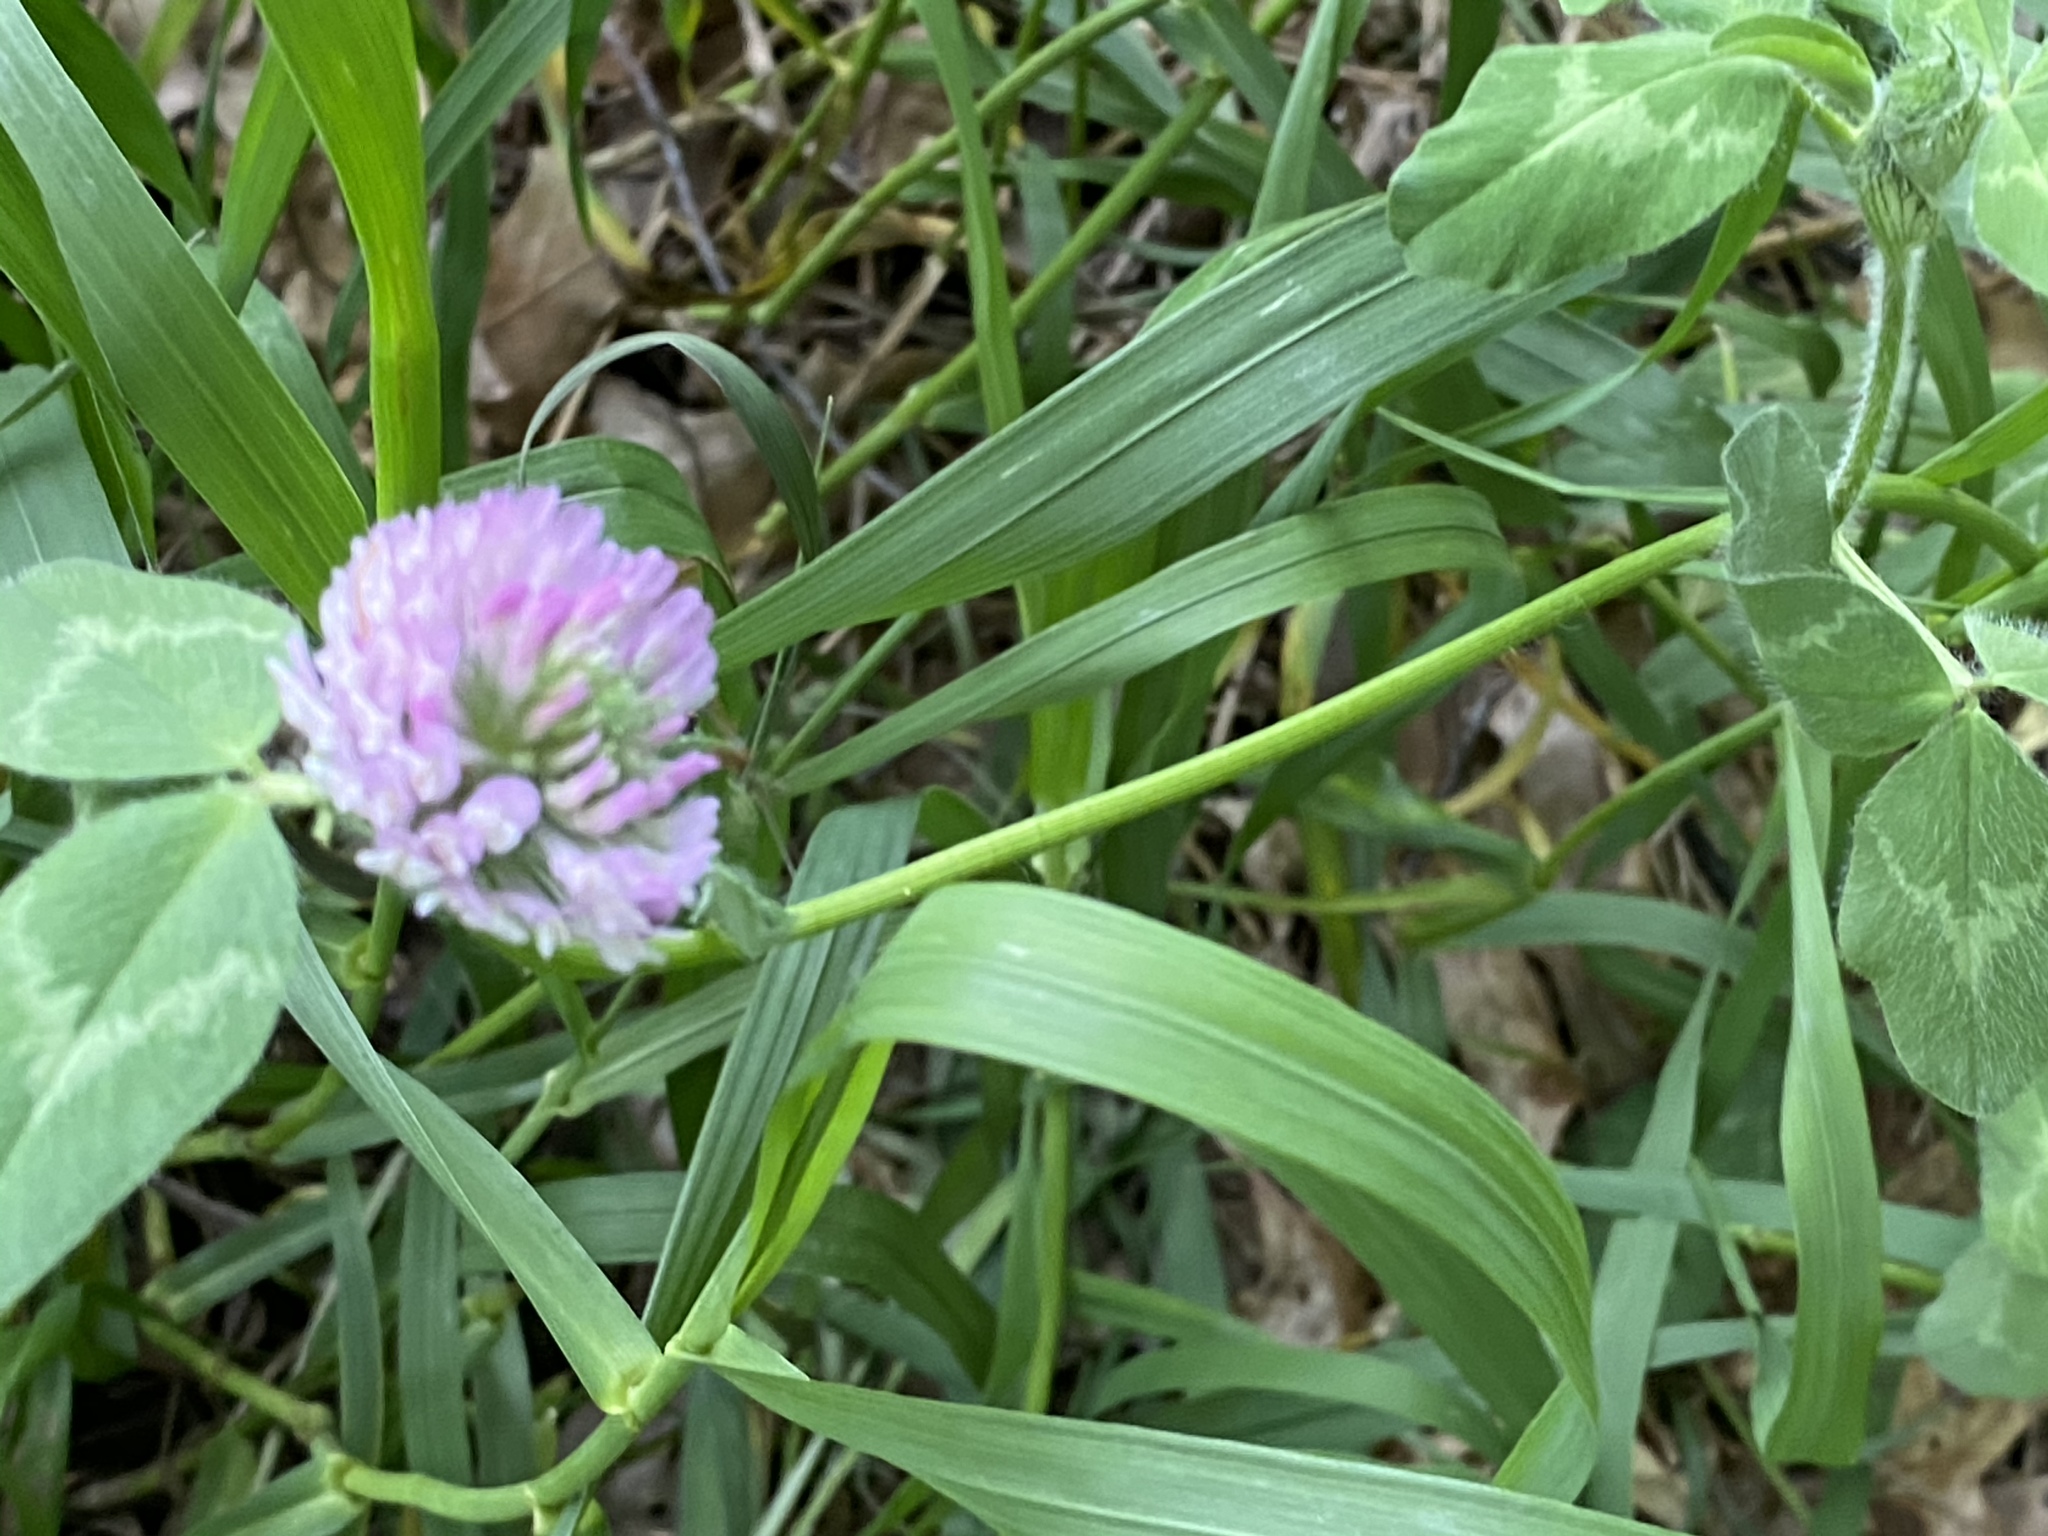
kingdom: Plantae
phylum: Tracheophyta
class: Magnoliopsida
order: Fabales
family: Fabaceae
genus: Trifolium
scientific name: Trifolium pratense
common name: Red clover
